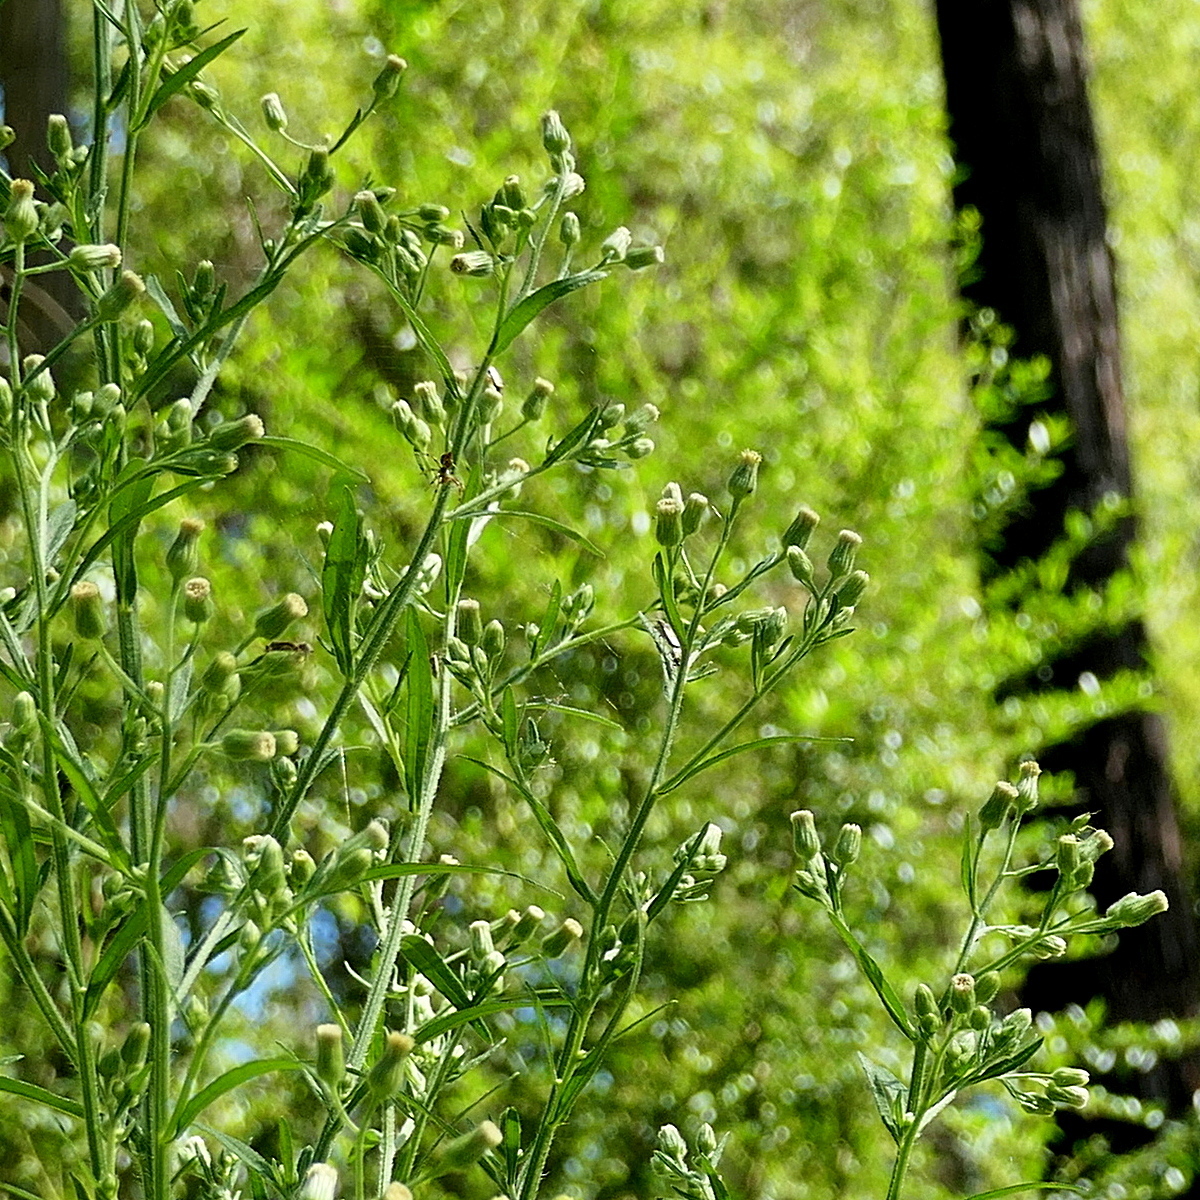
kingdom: Plantae
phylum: Tracheophyta
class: Magnoliopsida
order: Asterales
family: Asteraceae
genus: Erigeron
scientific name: Erigeron sumatrensis
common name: Daisy
